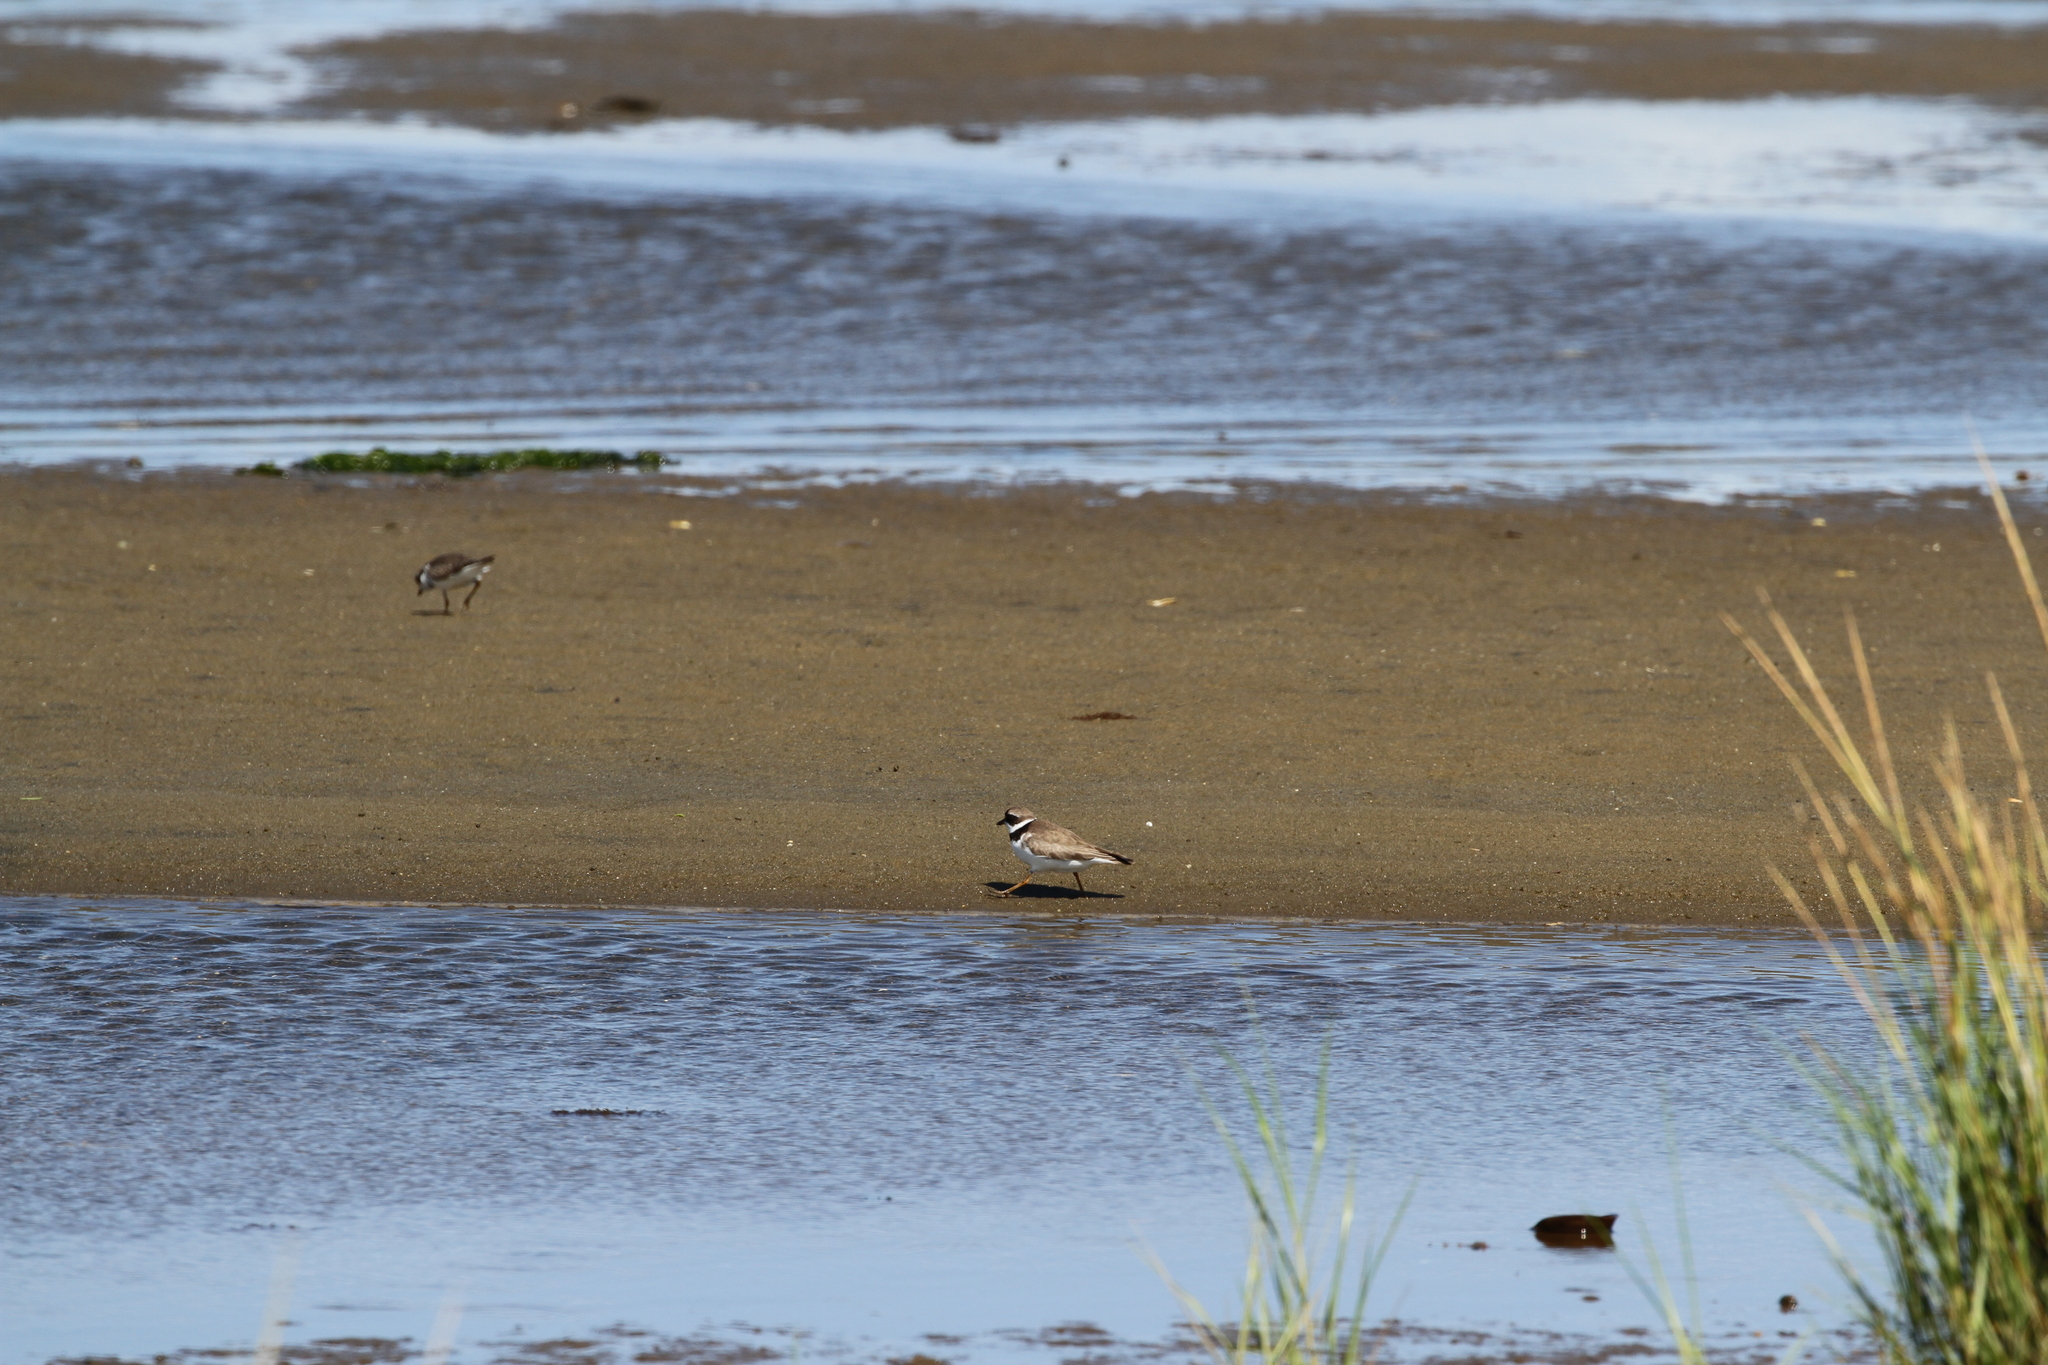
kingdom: Animalia
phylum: Chordata
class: Aves
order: Charadriiformes
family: Charadriidae
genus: Charadrius
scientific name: Charadrius semipalmatus
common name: Semipalmated plover
